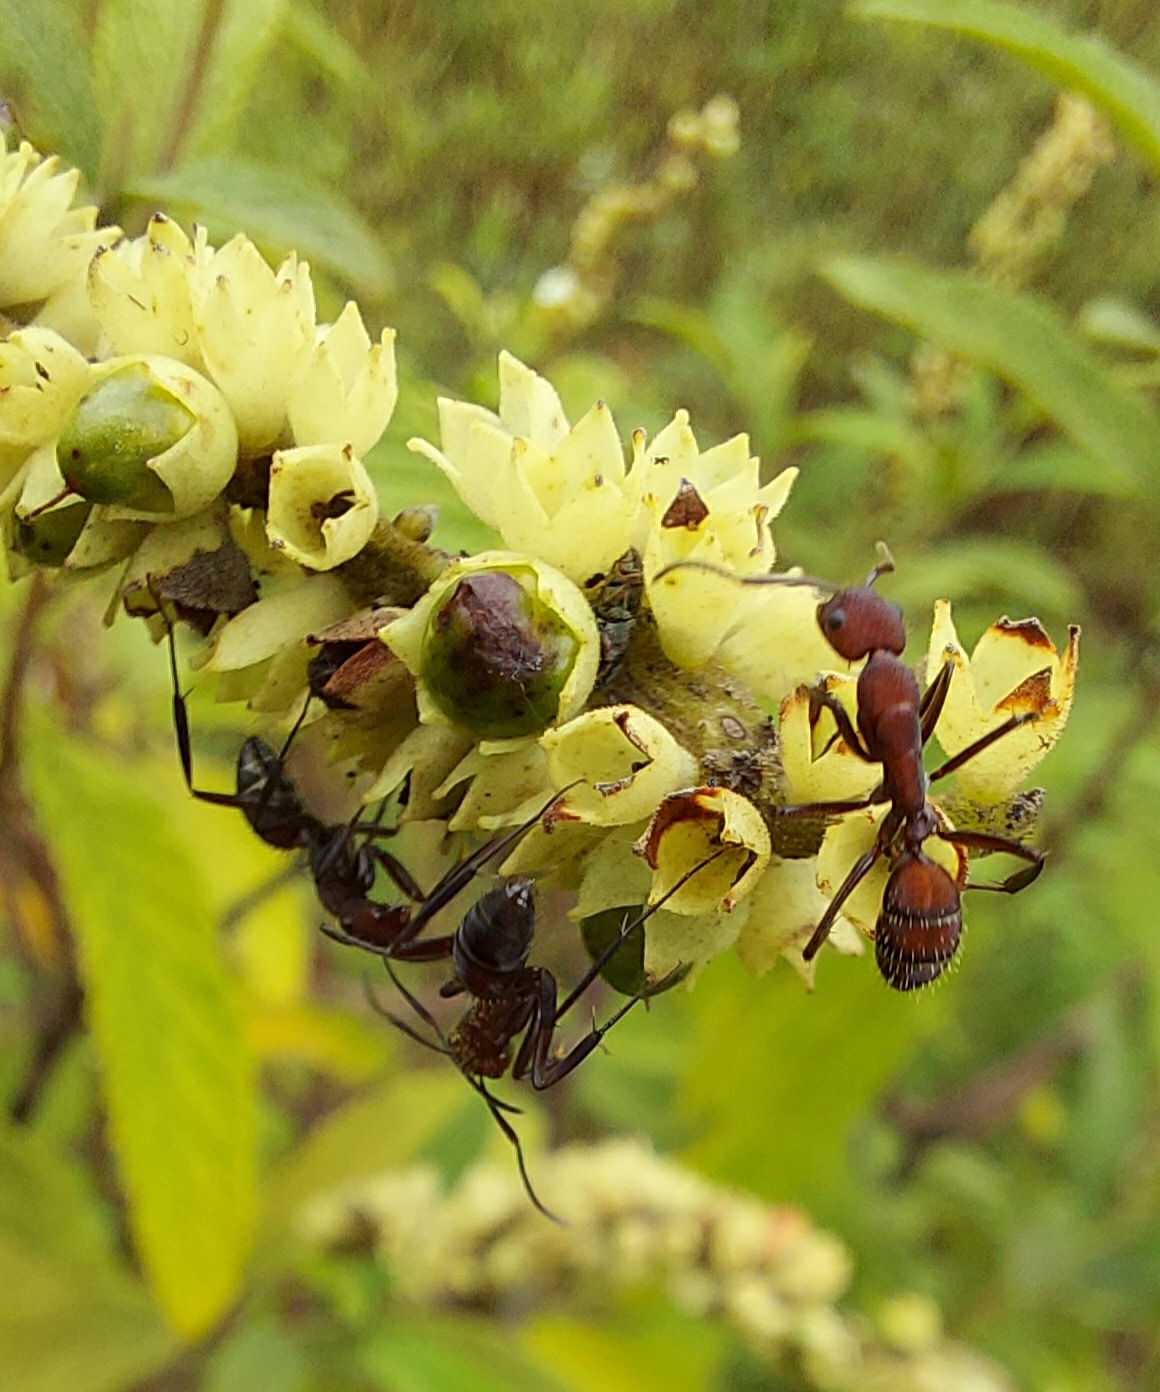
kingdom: Animalia
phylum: Arthropoda
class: Insecta
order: Hymenoptera
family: Formicidae
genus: Camponotus
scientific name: Camponotus leydigi
